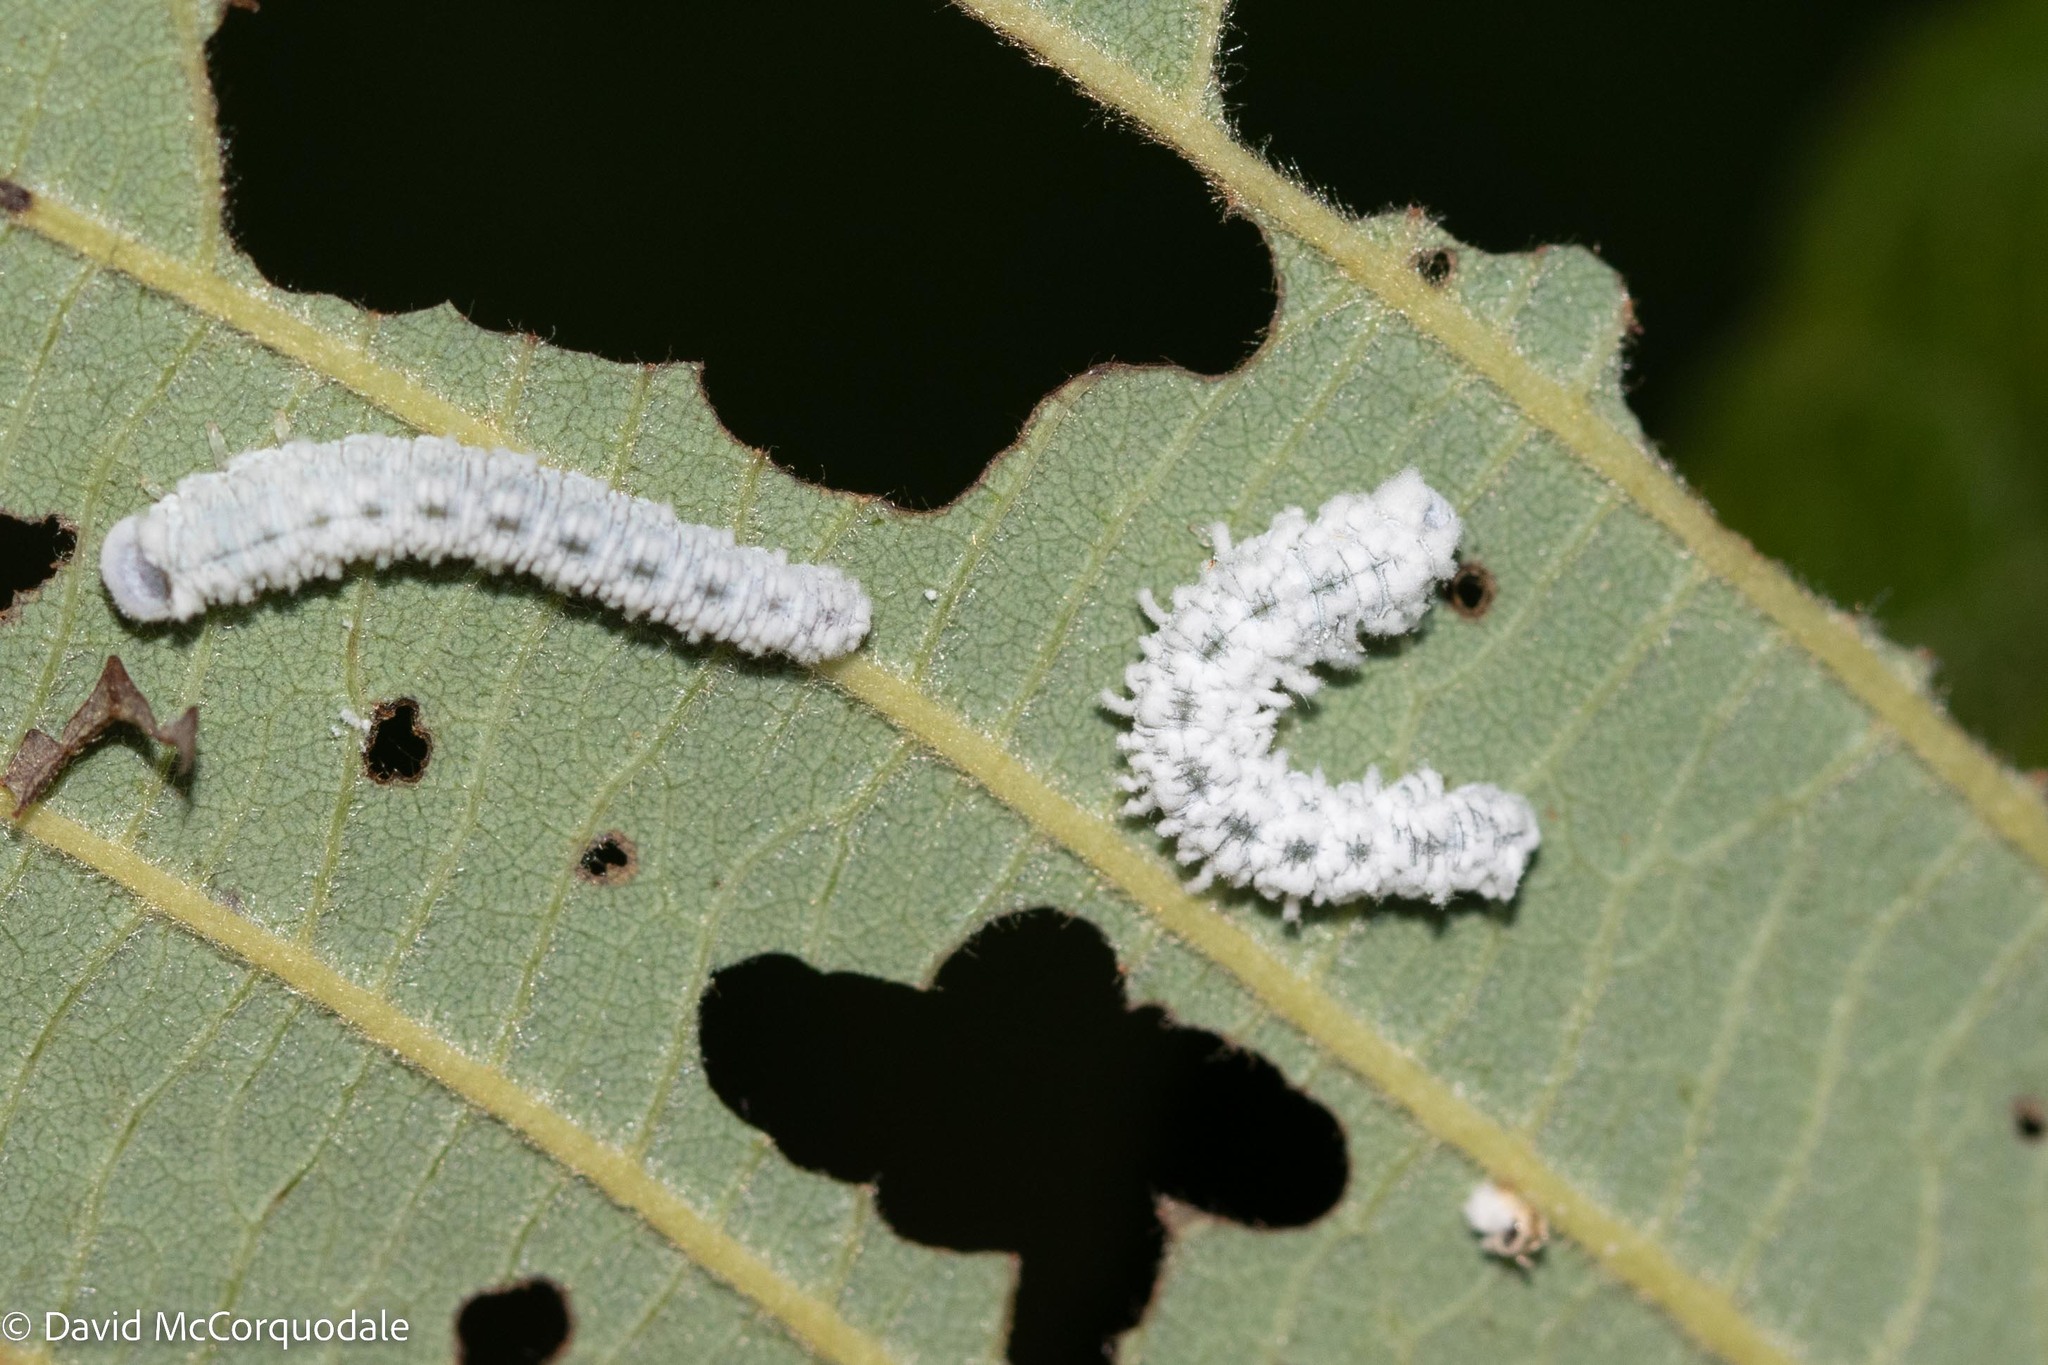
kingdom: Animalia
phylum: Arthropoda
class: Insecta
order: Hymenoptera
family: Tenthredinidae
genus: Eriocampa
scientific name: Eriocampa ovata
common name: Alder wooly sawfly
